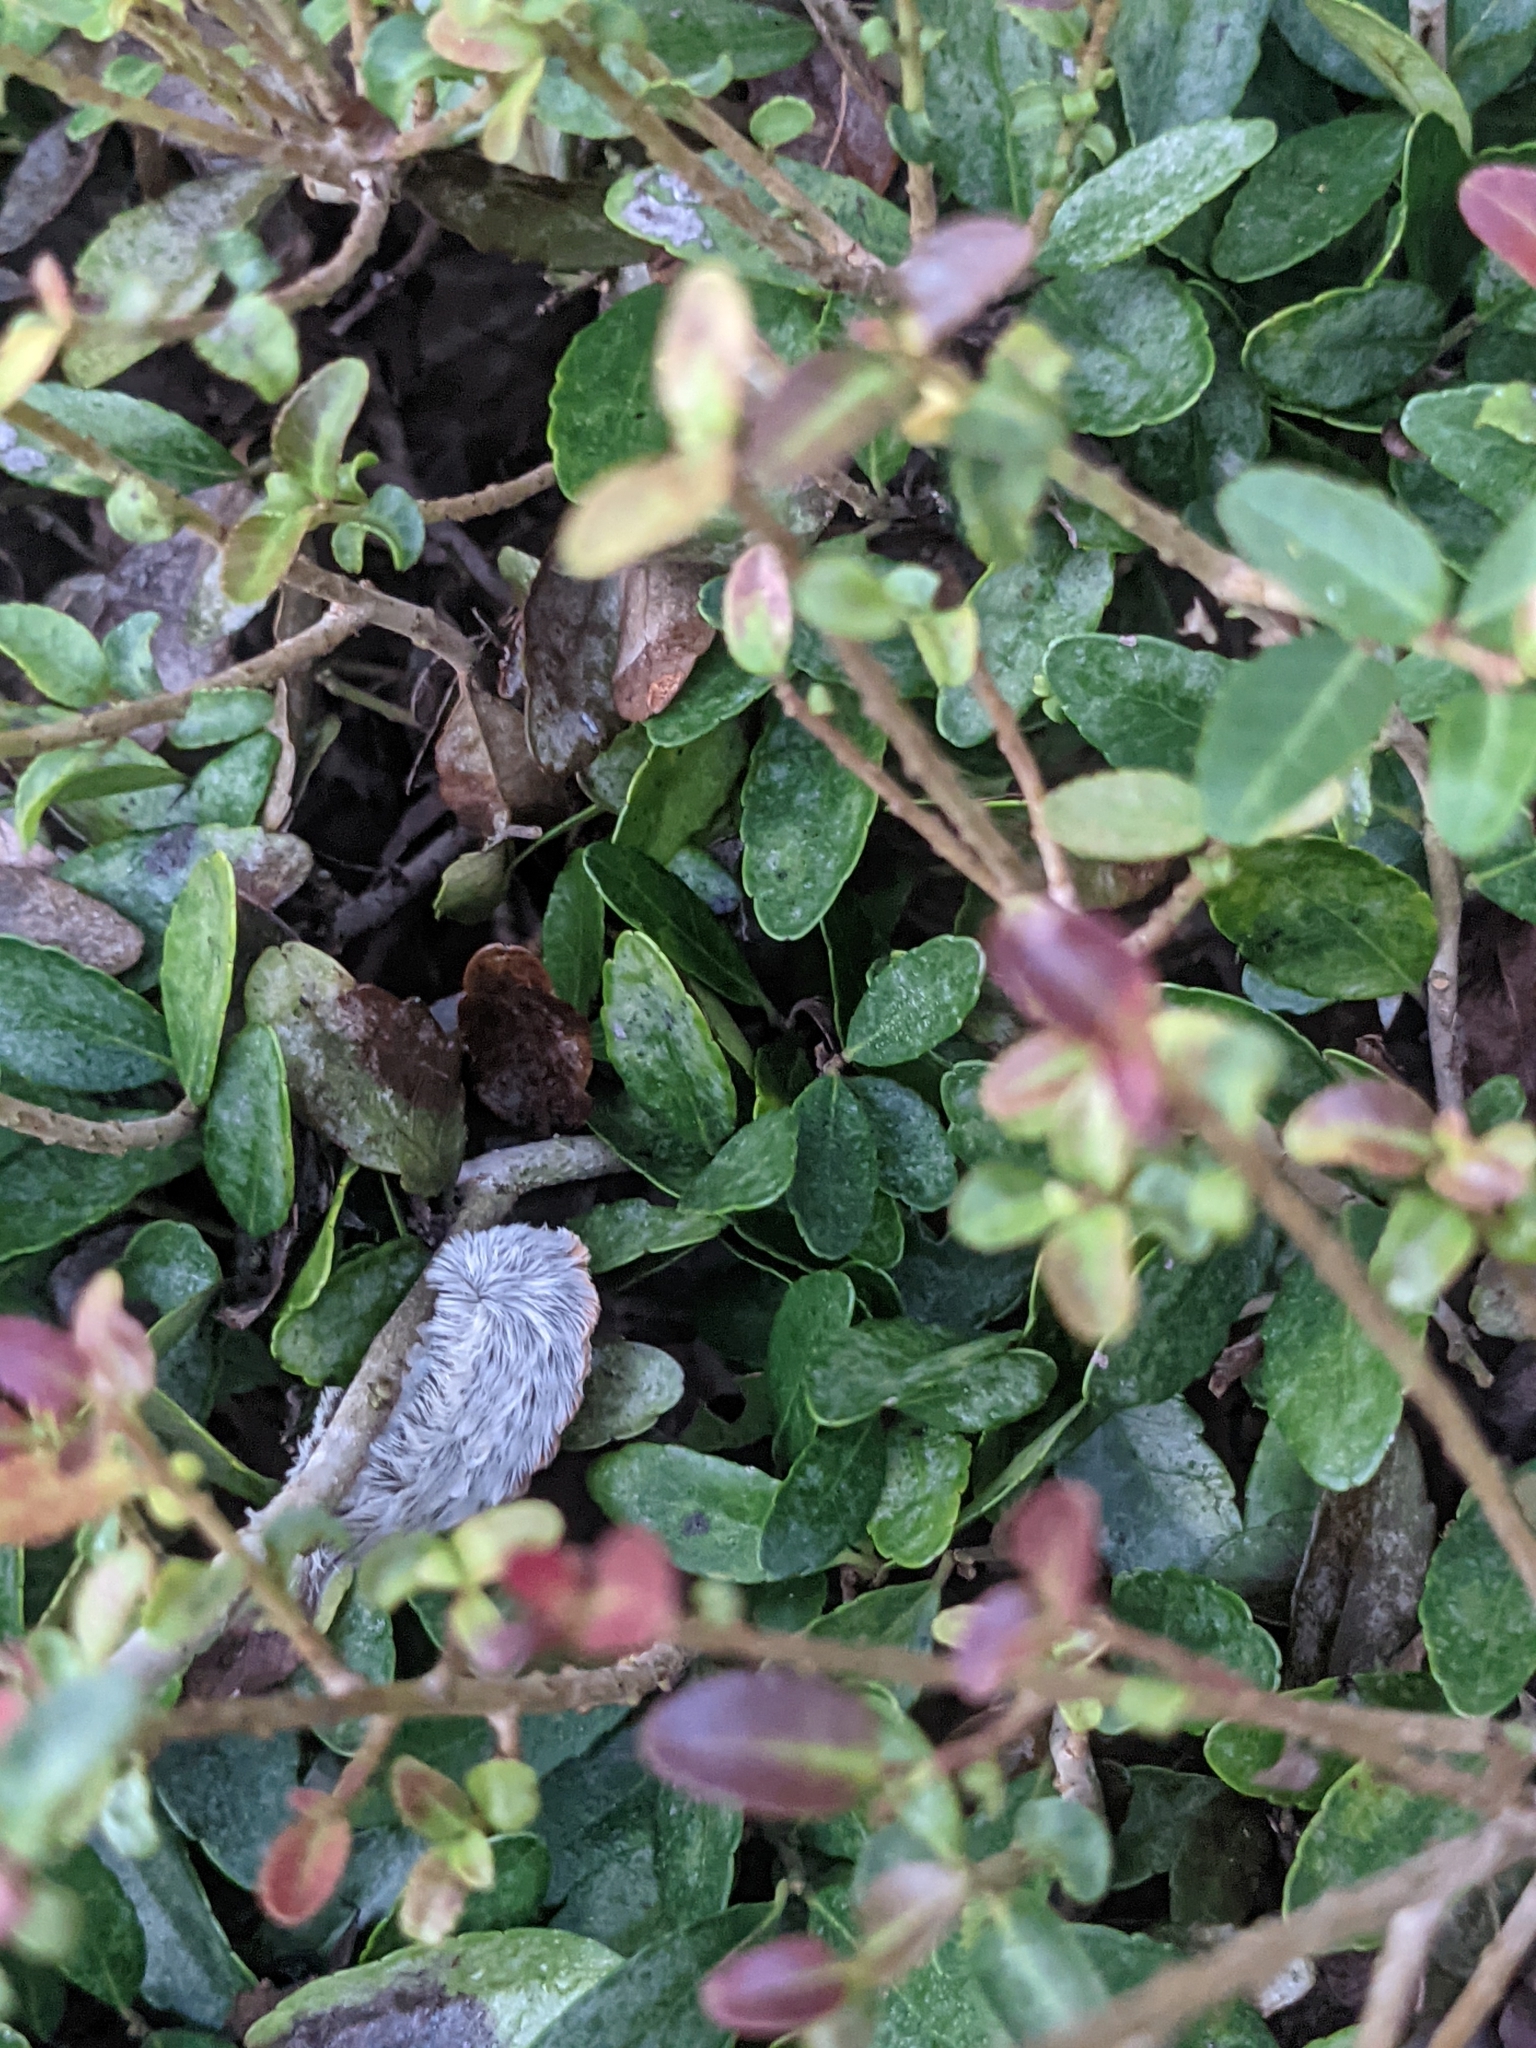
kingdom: Animalia
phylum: Arthropoda
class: Insecta
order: Lepidoptera
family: Megalopygidae
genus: Megalopyge
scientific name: Megalopyge opercularis
